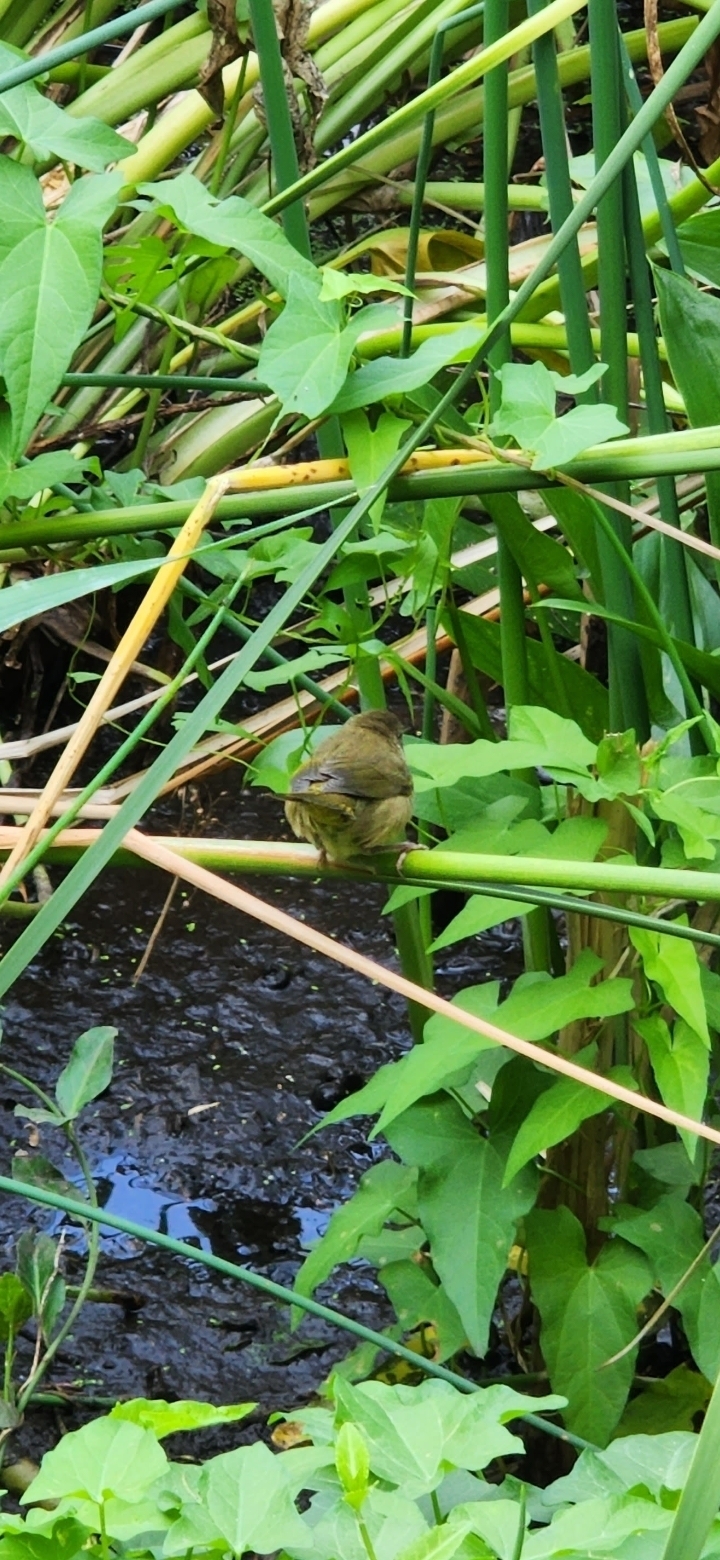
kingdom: Animalia
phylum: Chordata
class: Aves
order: Passeriformes
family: Parulidae
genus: Geothlypis
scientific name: Geothlypis trichas
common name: Common yellowthroat
